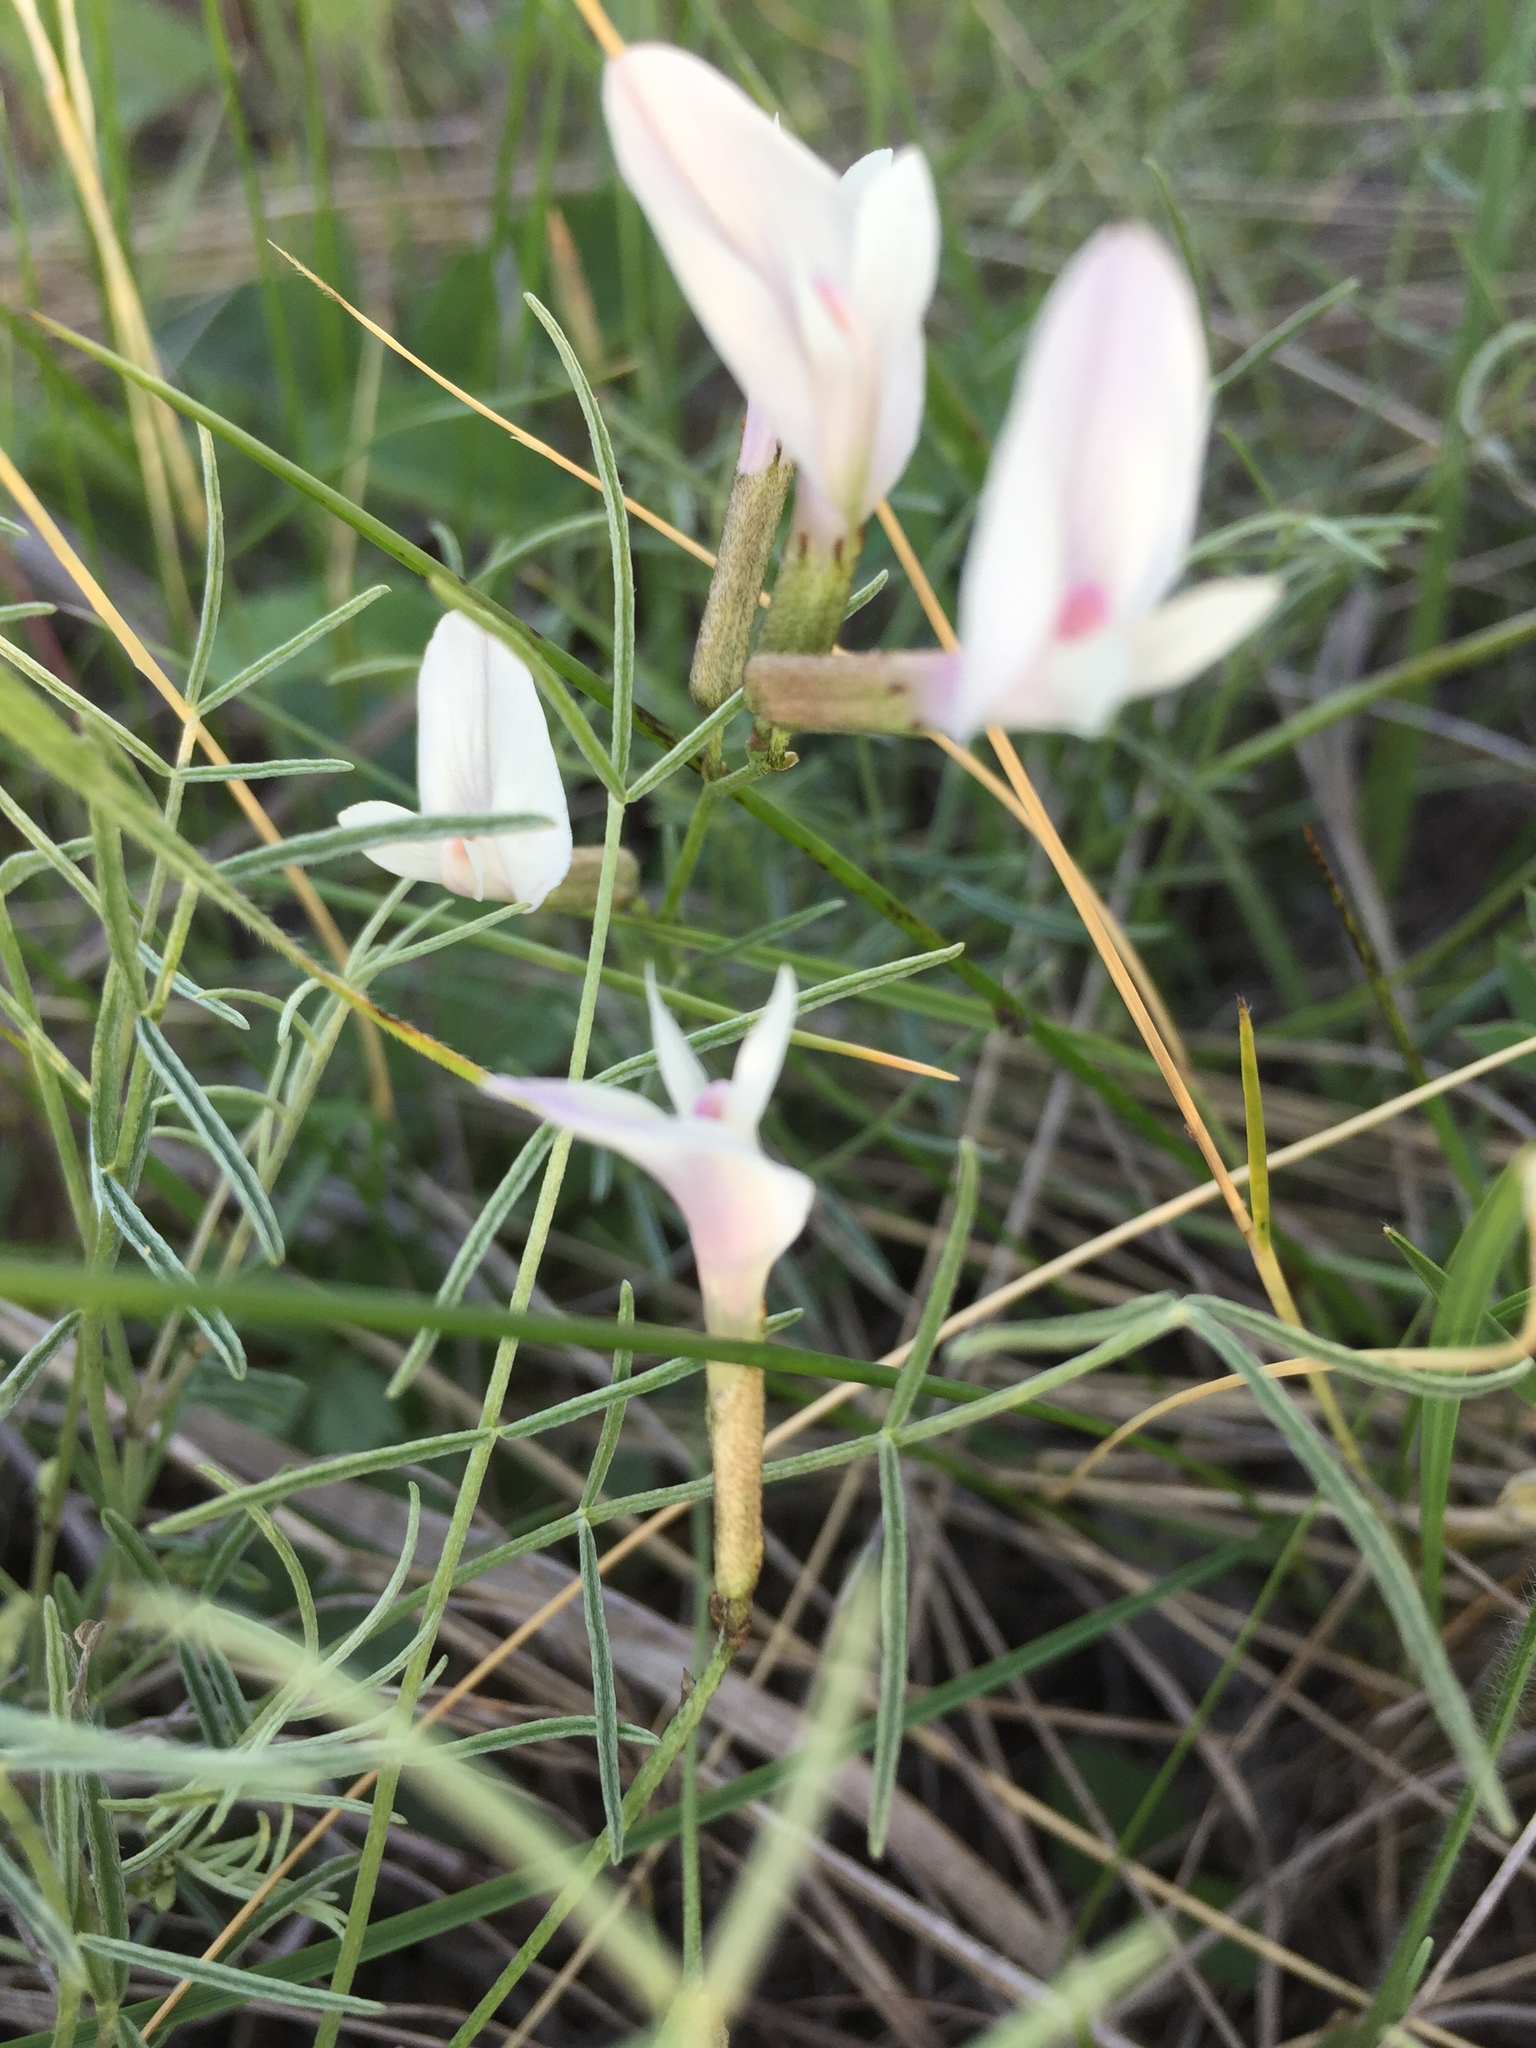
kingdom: Plantae
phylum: Tracheophyta
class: Magnoliopsida
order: Fabales
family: Fabaceae
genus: Astragalus
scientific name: Astragalus ucrainicus
